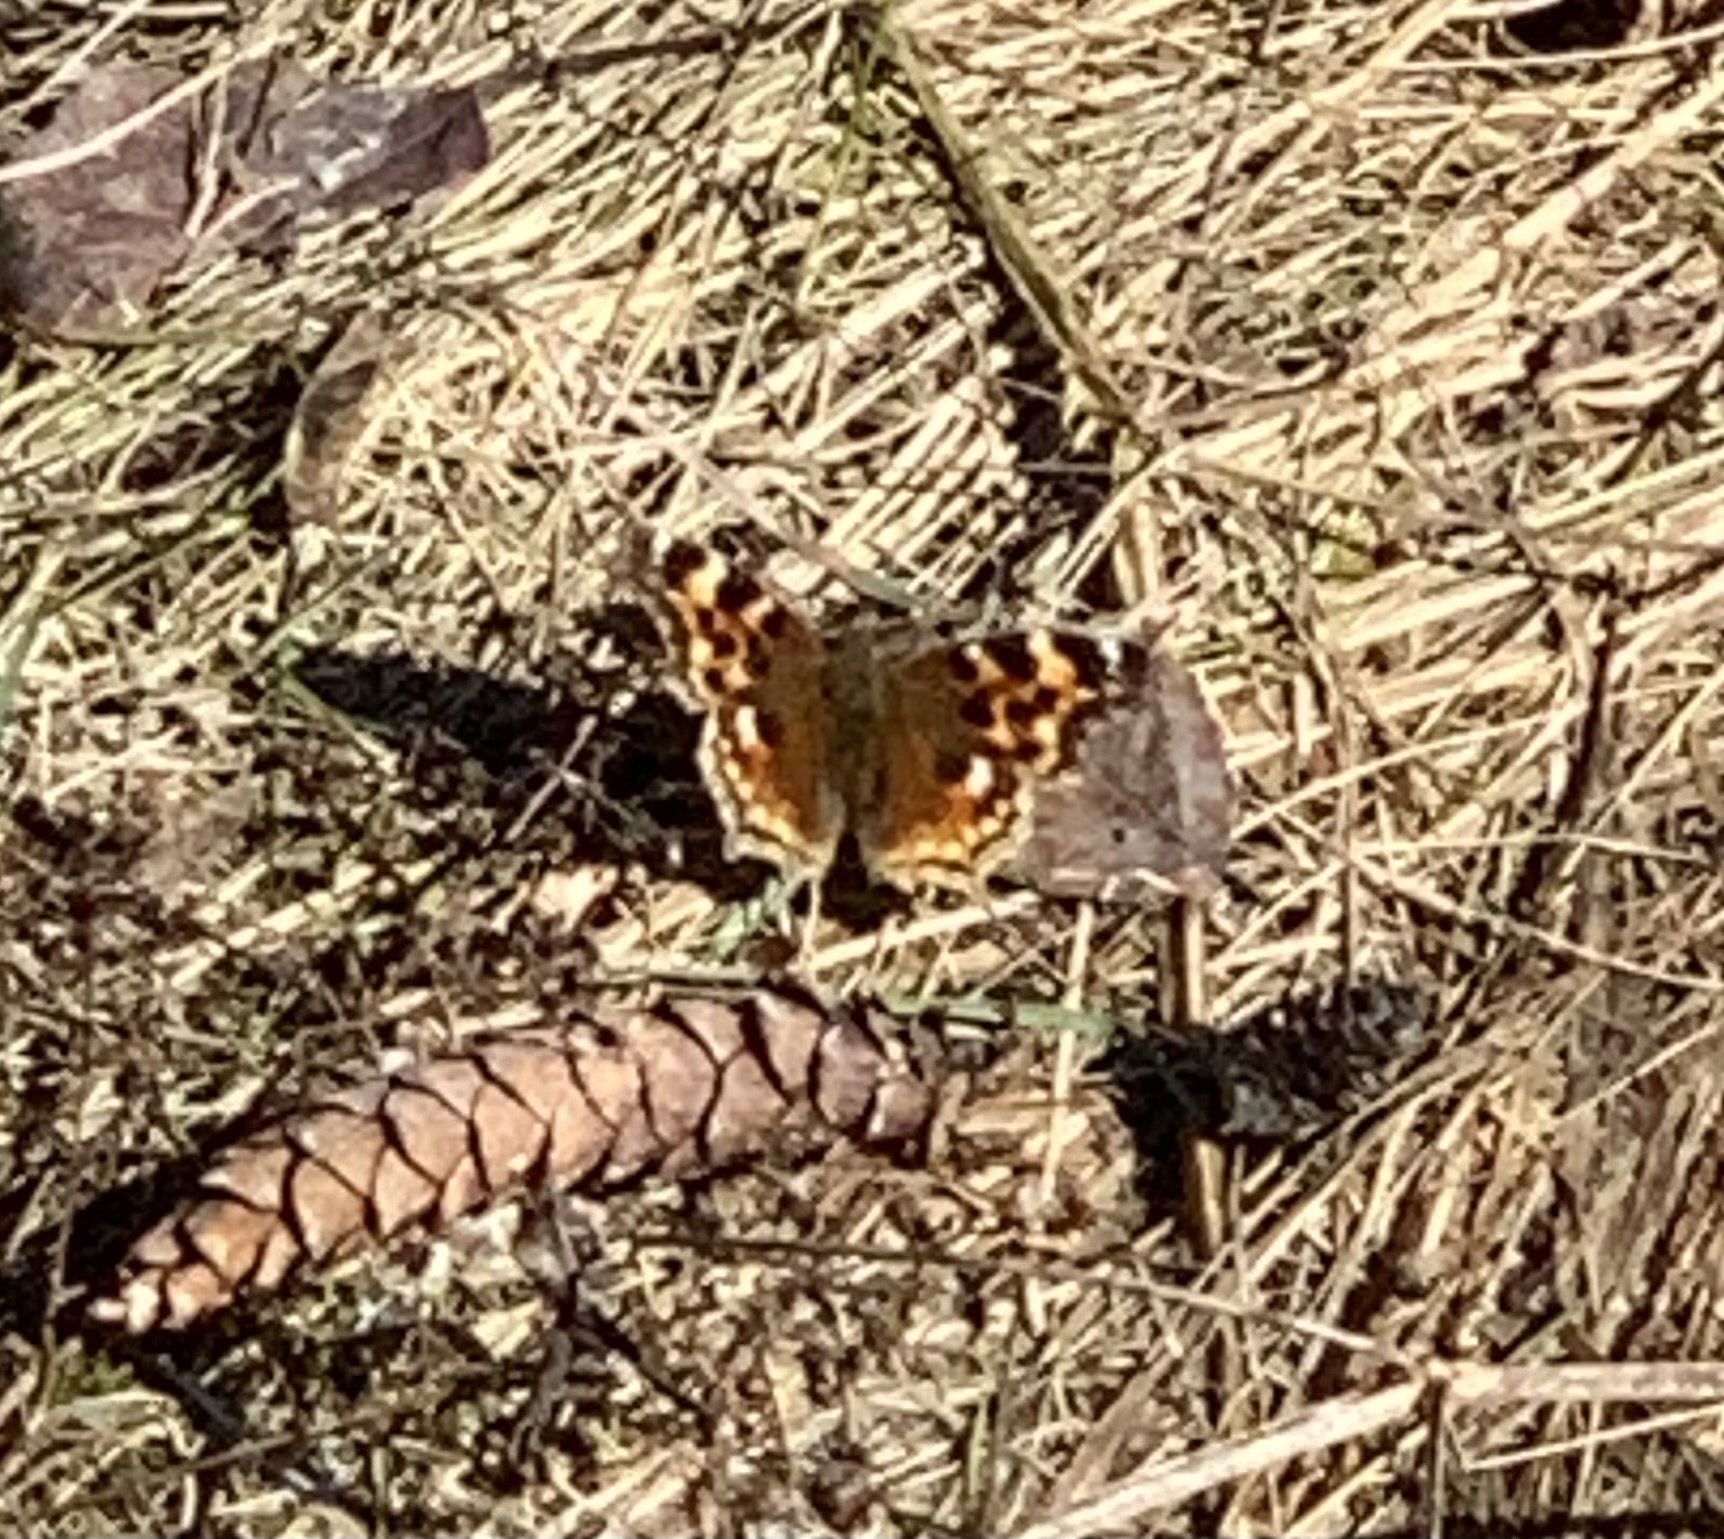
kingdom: Animalia
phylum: Arthropoda
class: Insecta
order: Lepidoptera
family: Nymphalidae
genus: Polygonia
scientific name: Polygonia vaualbum
